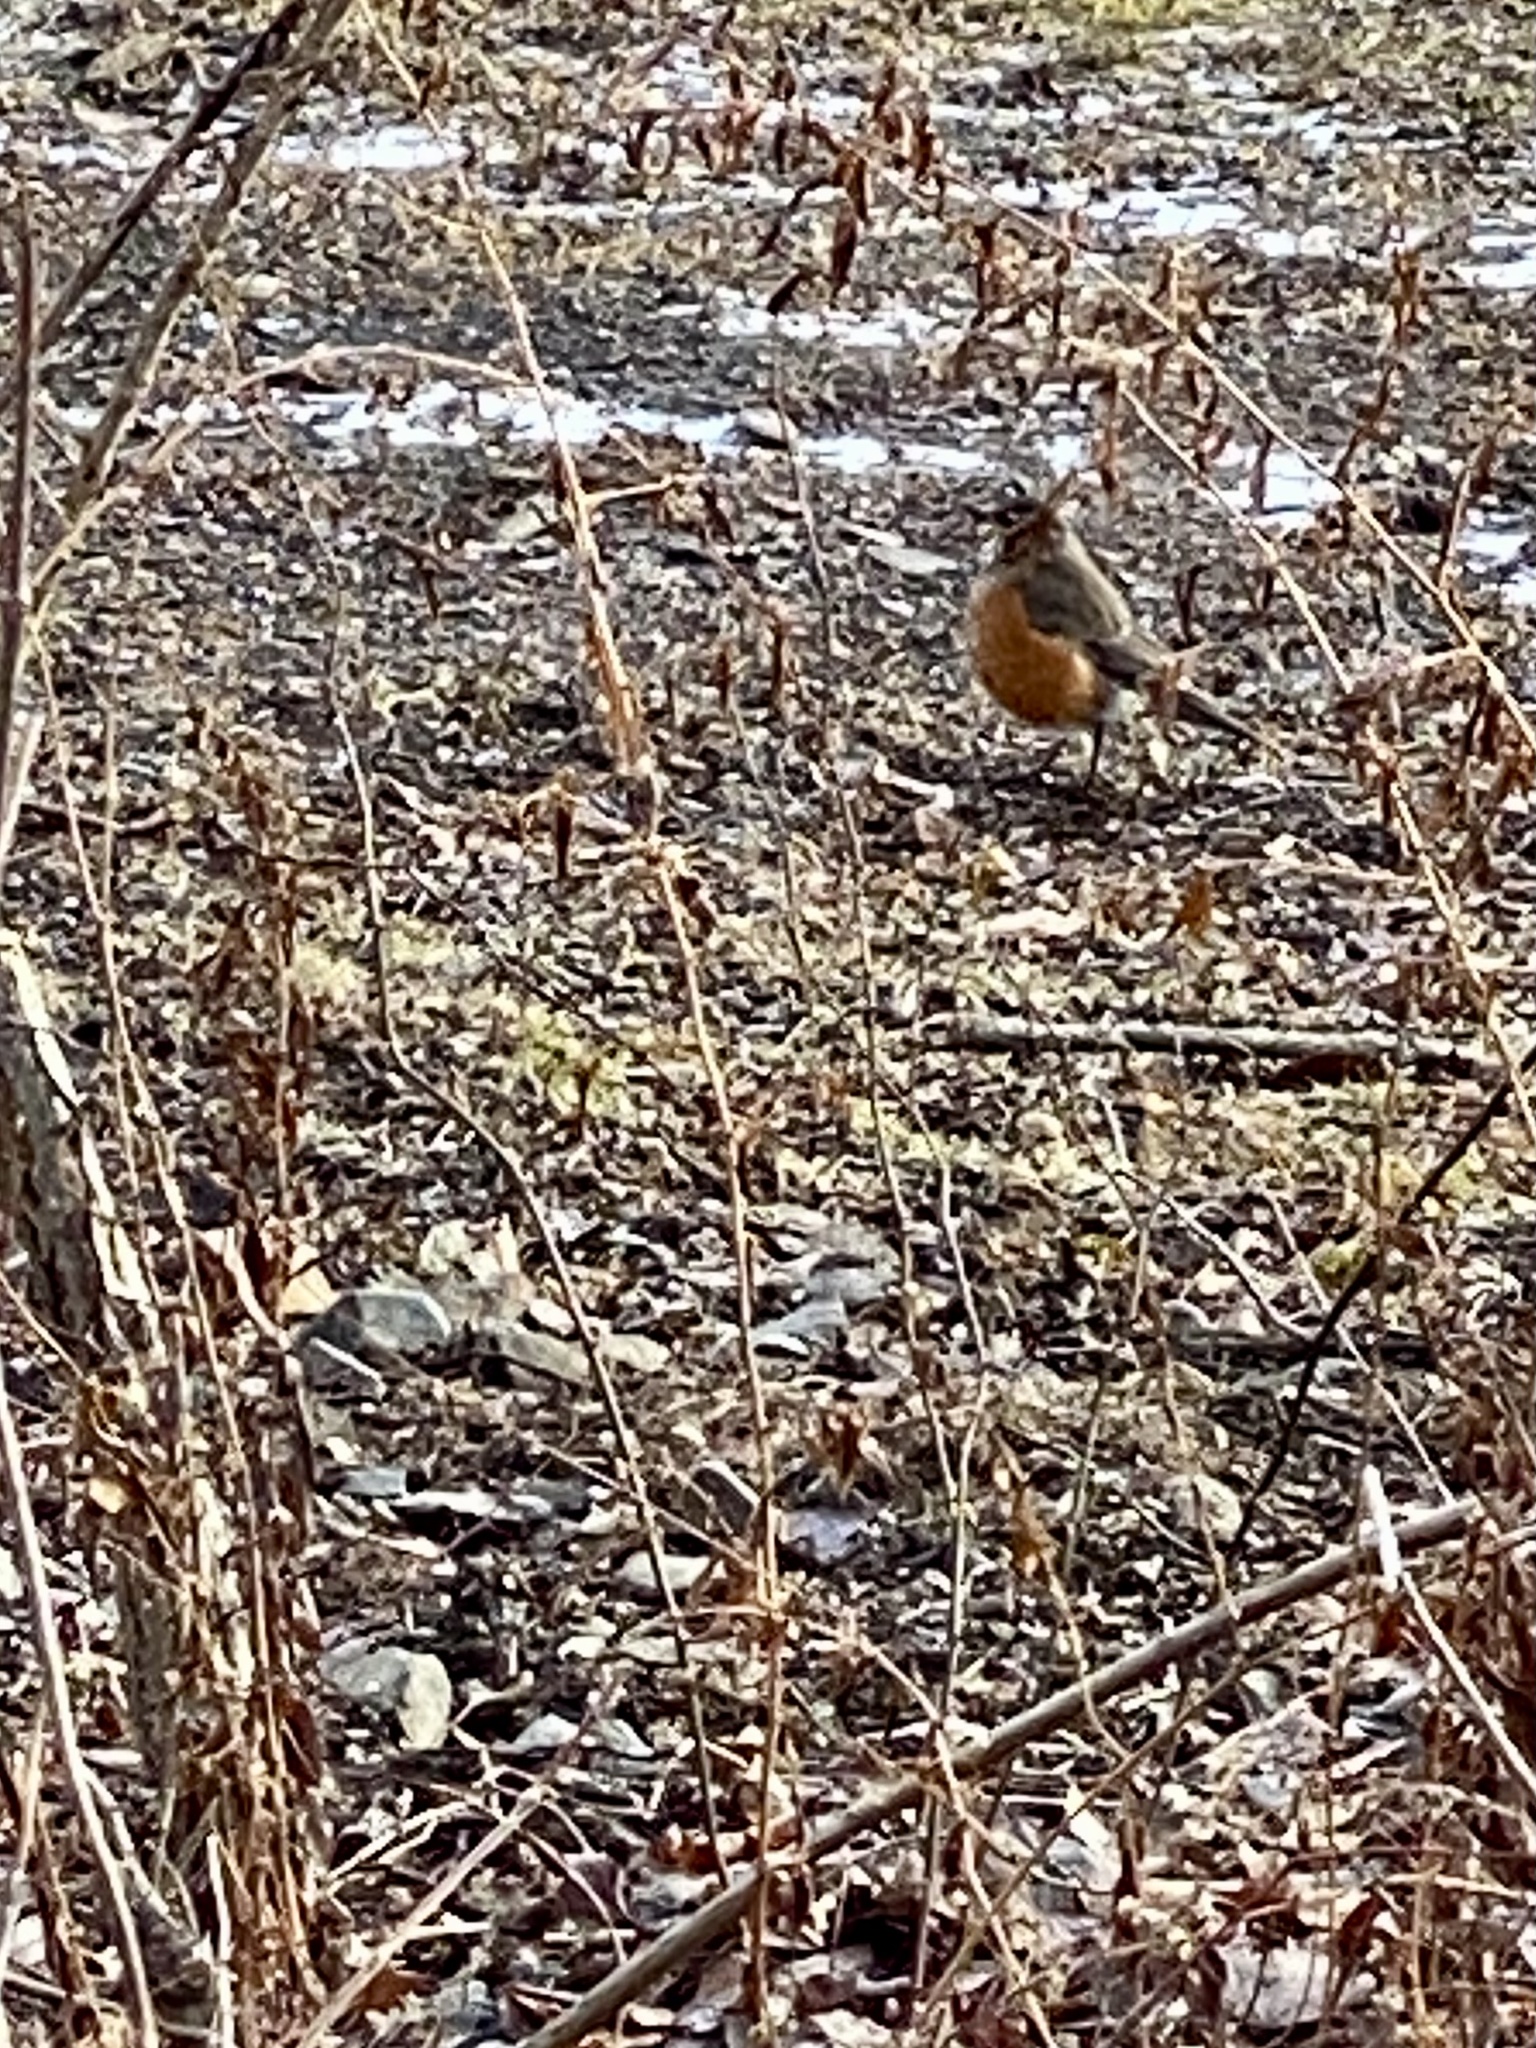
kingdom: Animalia
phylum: Chordata
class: Aves
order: Passeriformes
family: Turdidae
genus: Turdus
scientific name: Turdus migratorius
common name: American robin
